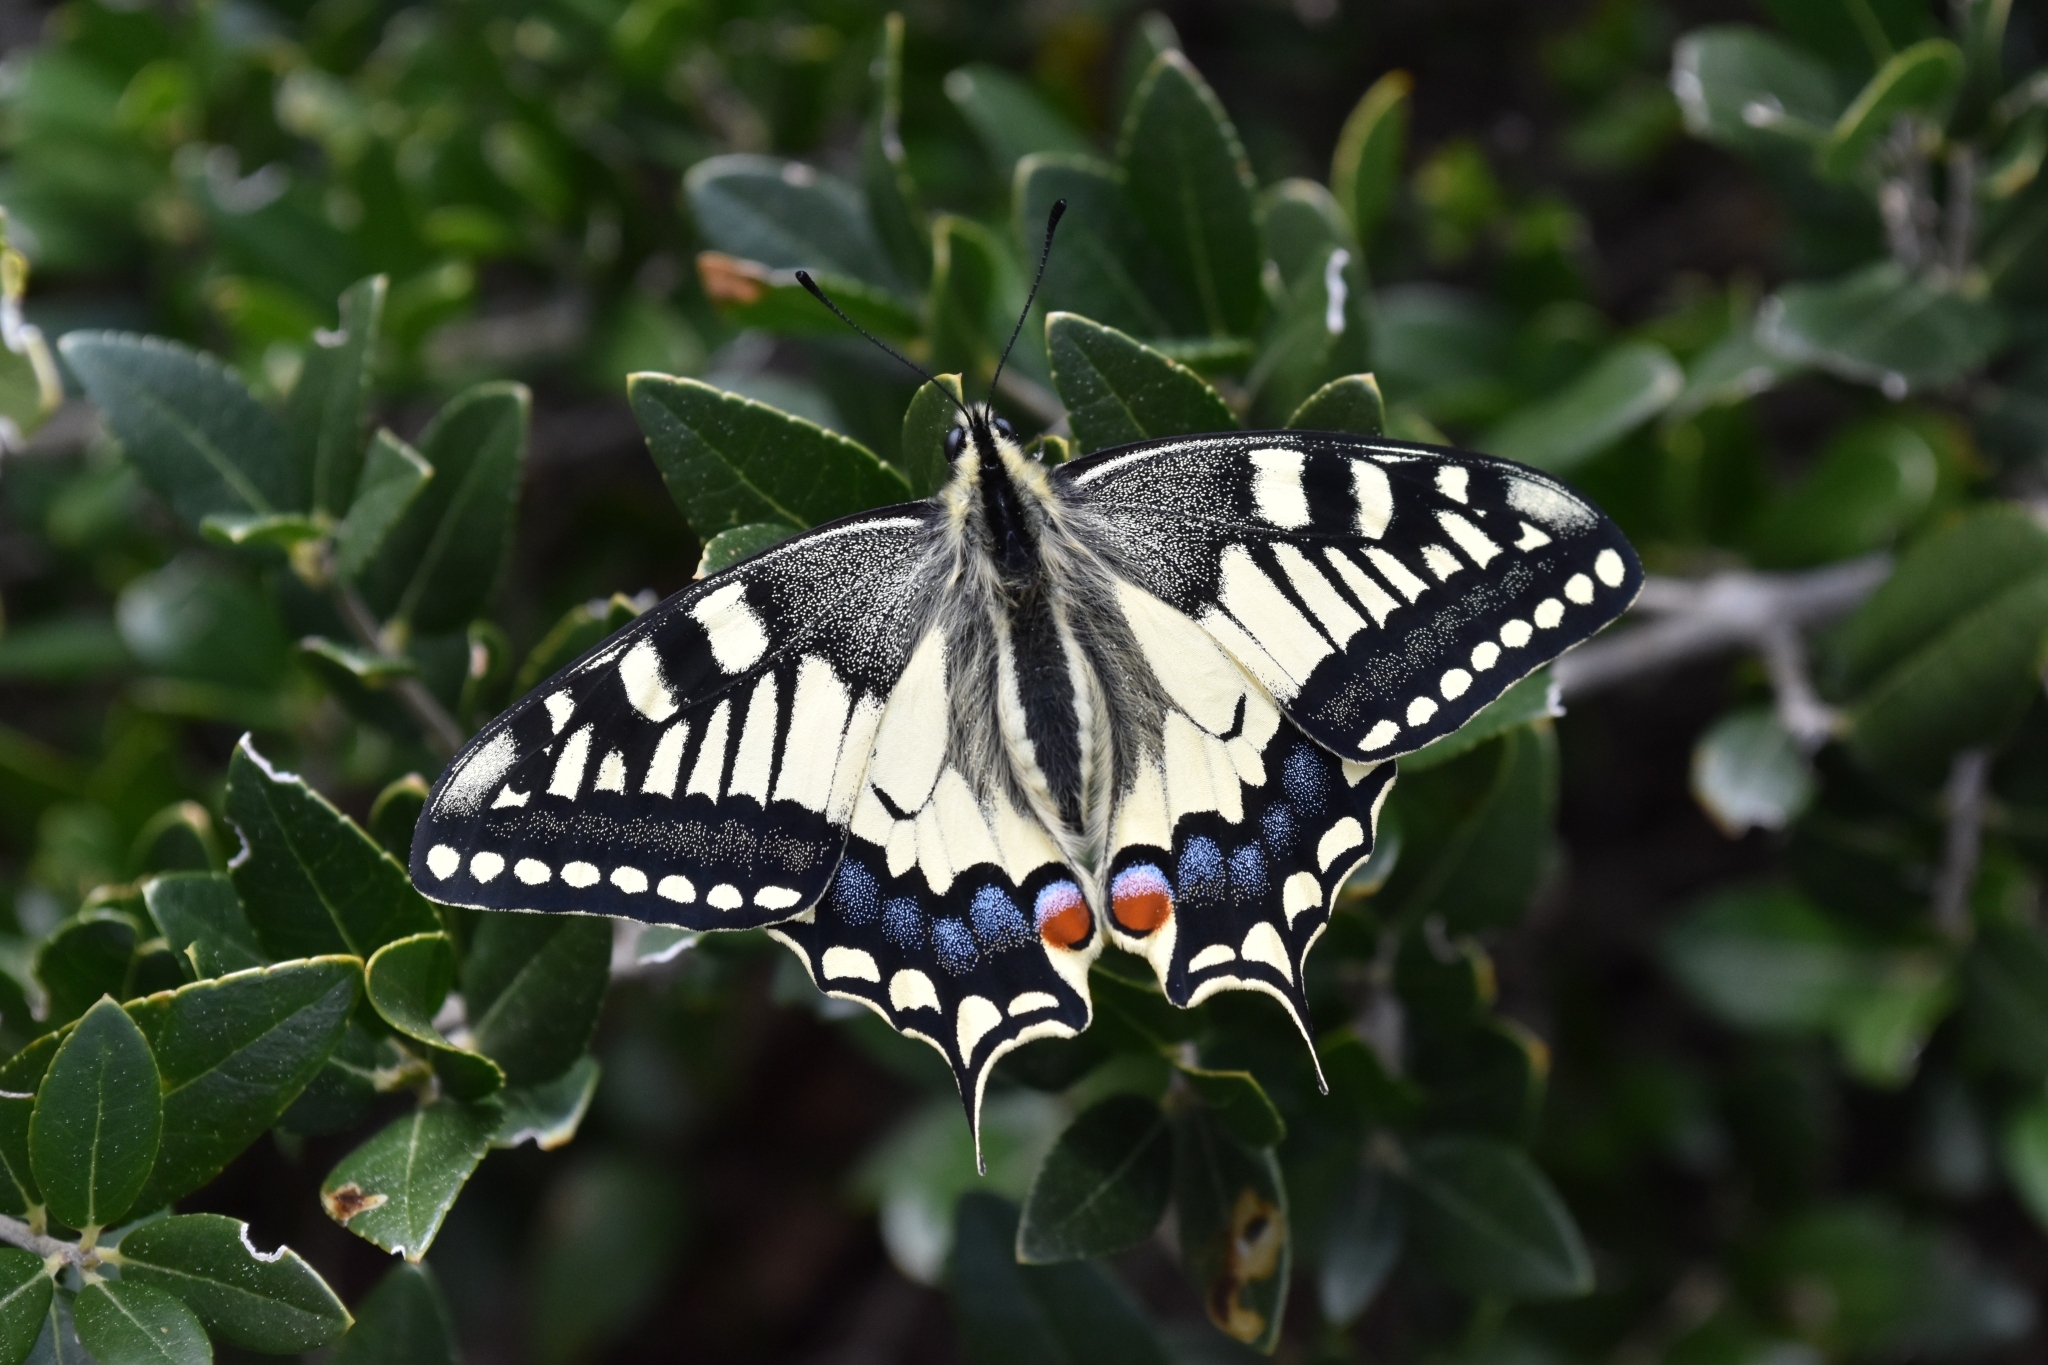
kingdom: Animalia
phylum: Arthropoda
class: Insecta
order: Lepidoptera
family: Papilionidae
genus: Papilio
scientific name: Papilio machaon
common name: Swallowtail
